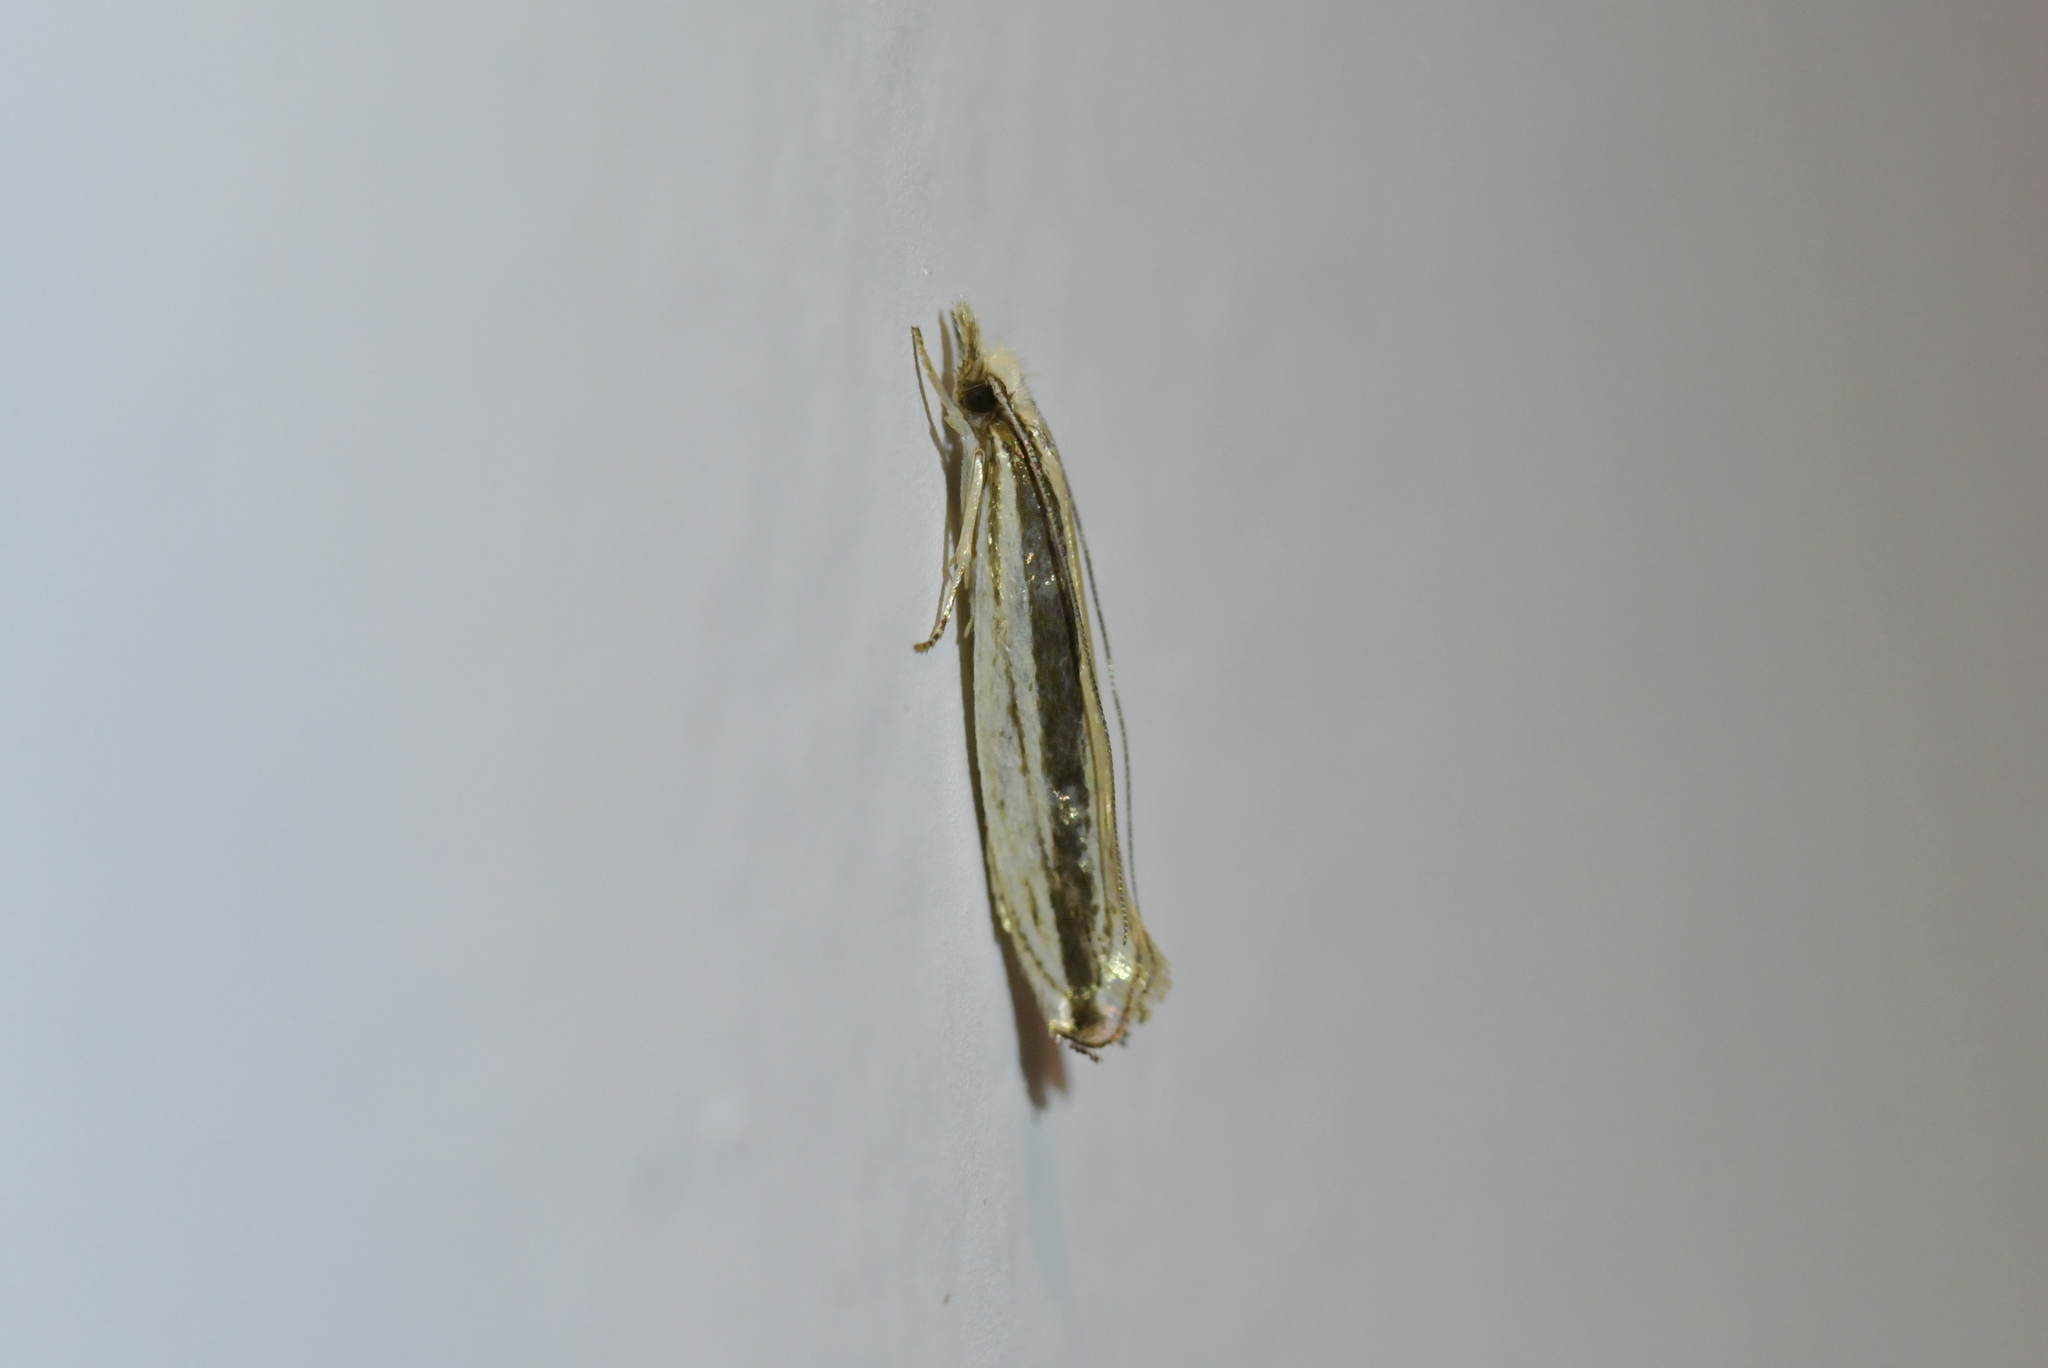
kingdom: Animalia
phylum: Arthropoda
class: Insecta
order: Lepidoptera
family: Tineidae
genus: Erechthias
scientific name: Erechthias stilbella
